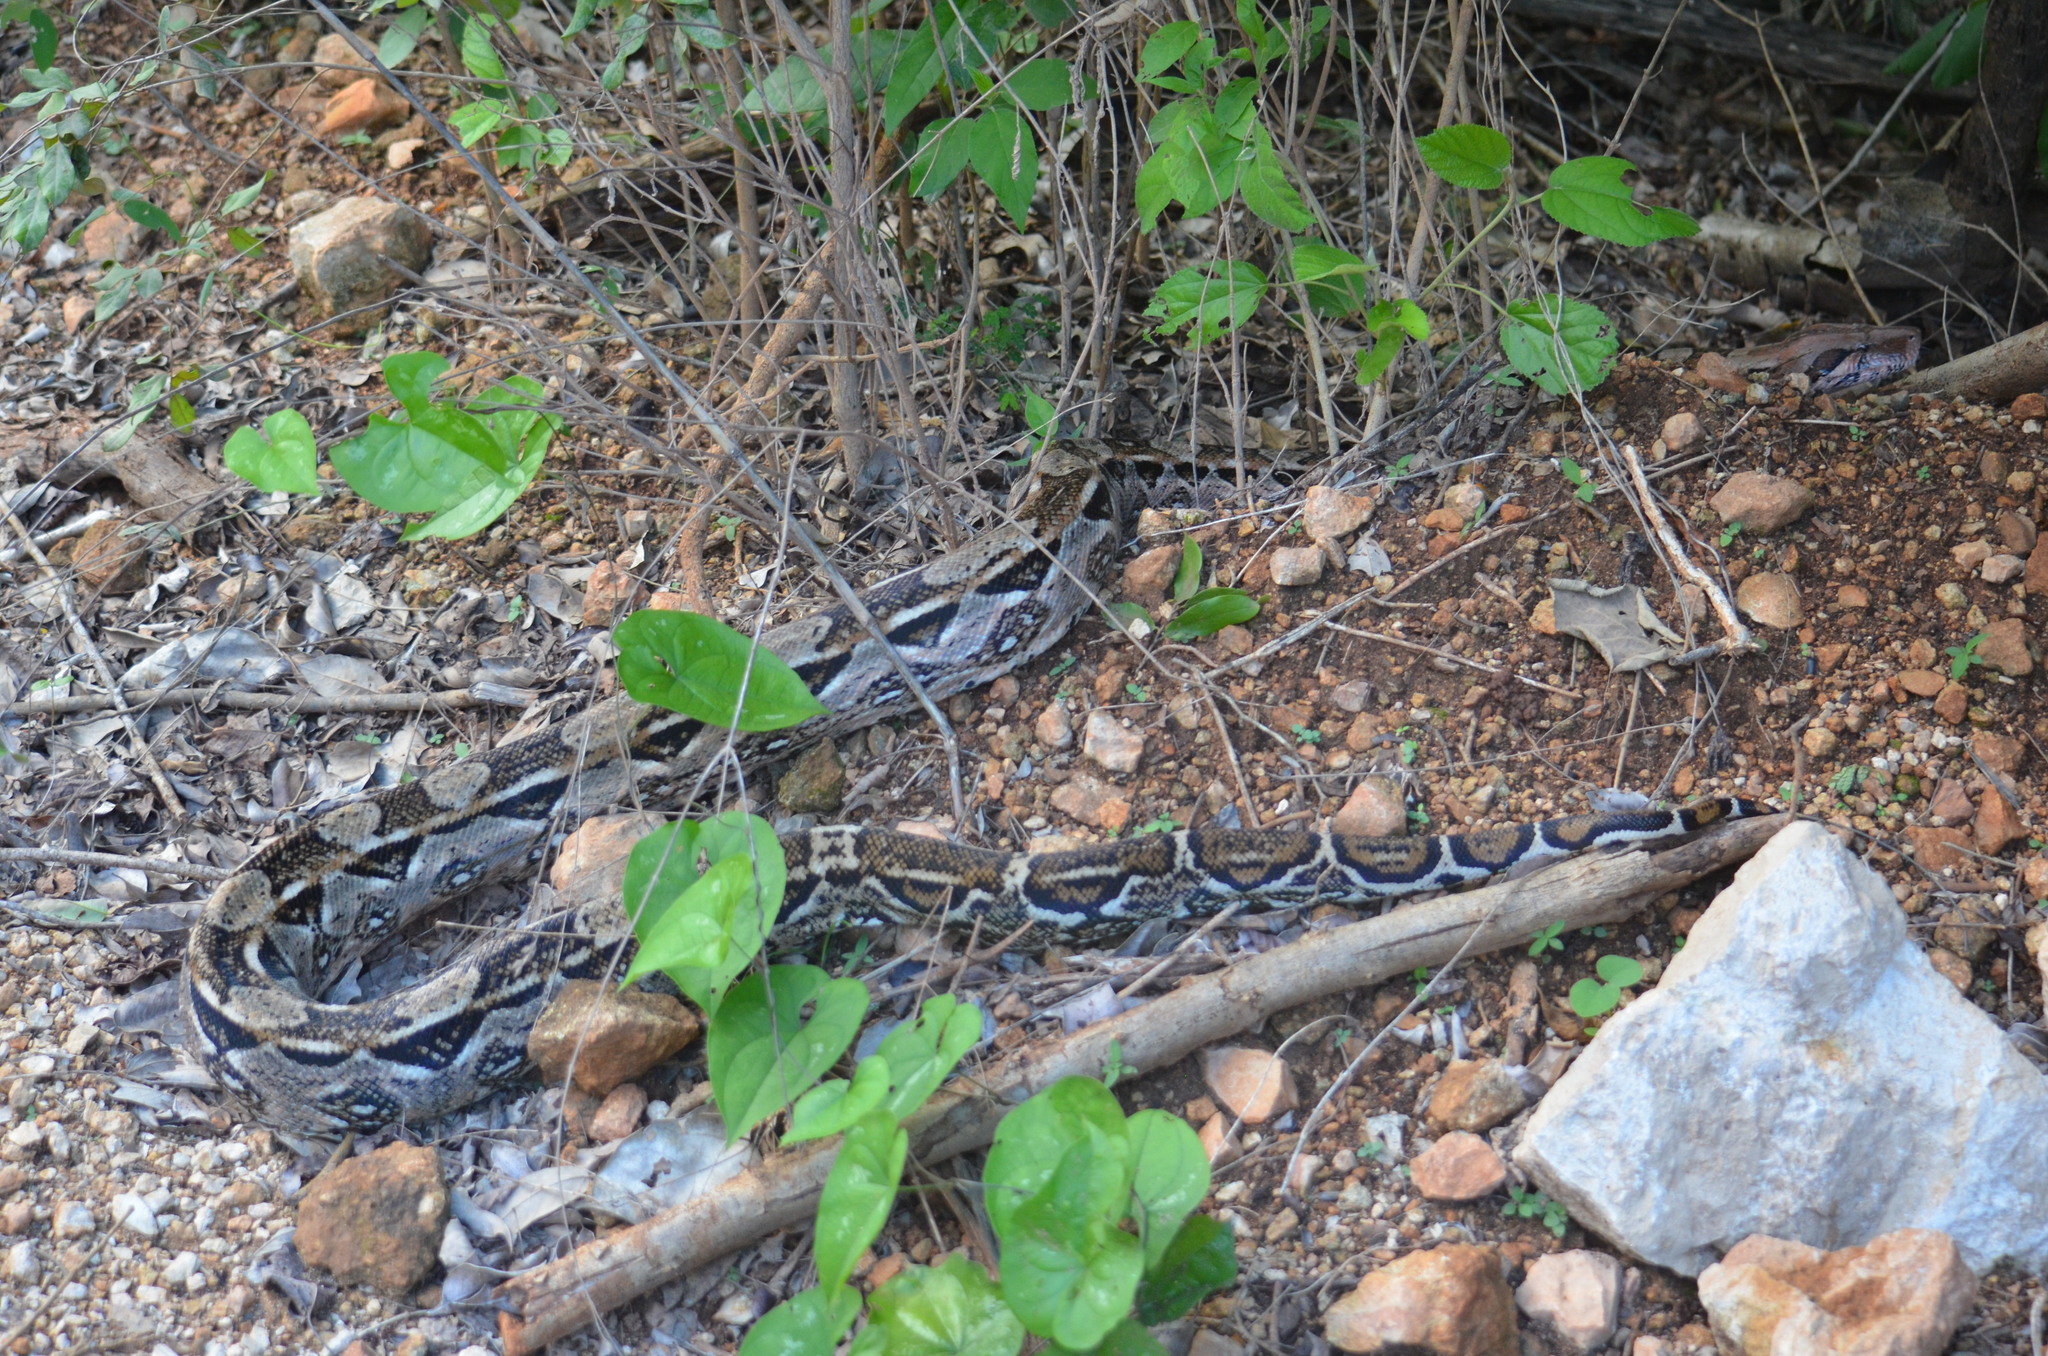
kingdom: Animalia
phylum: Chordata
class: Squamata
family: Boidae
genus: Boa
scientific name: Boa imperator
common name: Central american boa
